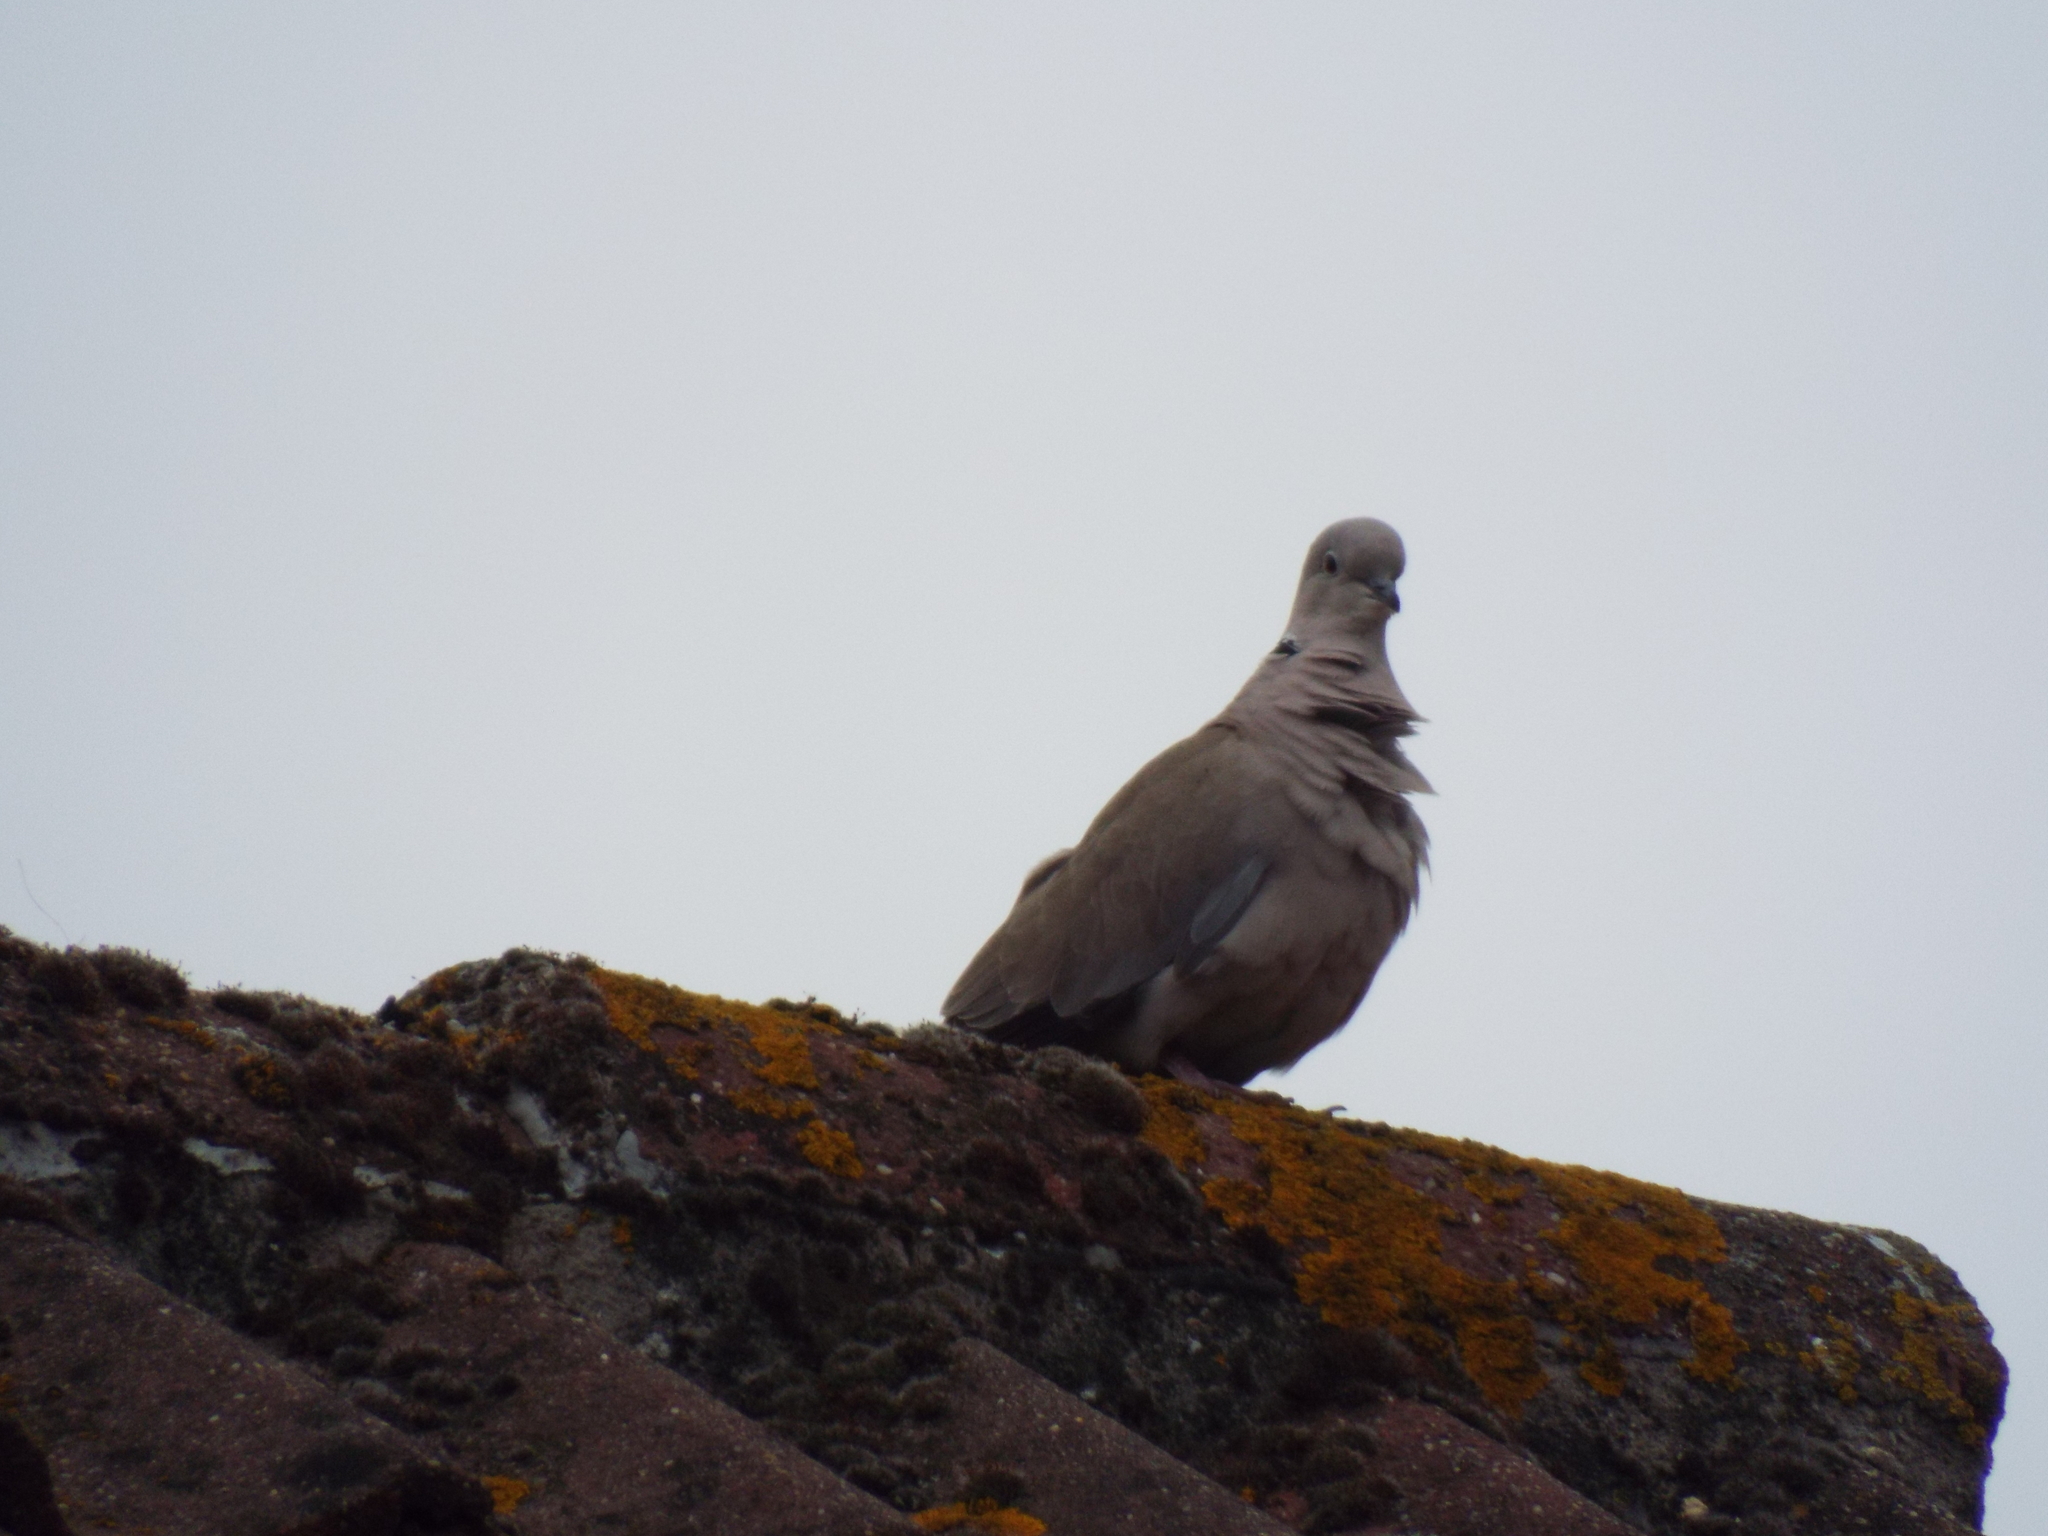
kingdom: Animalia
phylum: Chordata
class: Aves
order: Columbiformes
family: Columbidae
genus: Streptopelia
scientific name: Streptopelia decaocto
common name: Eurasian collared dove
